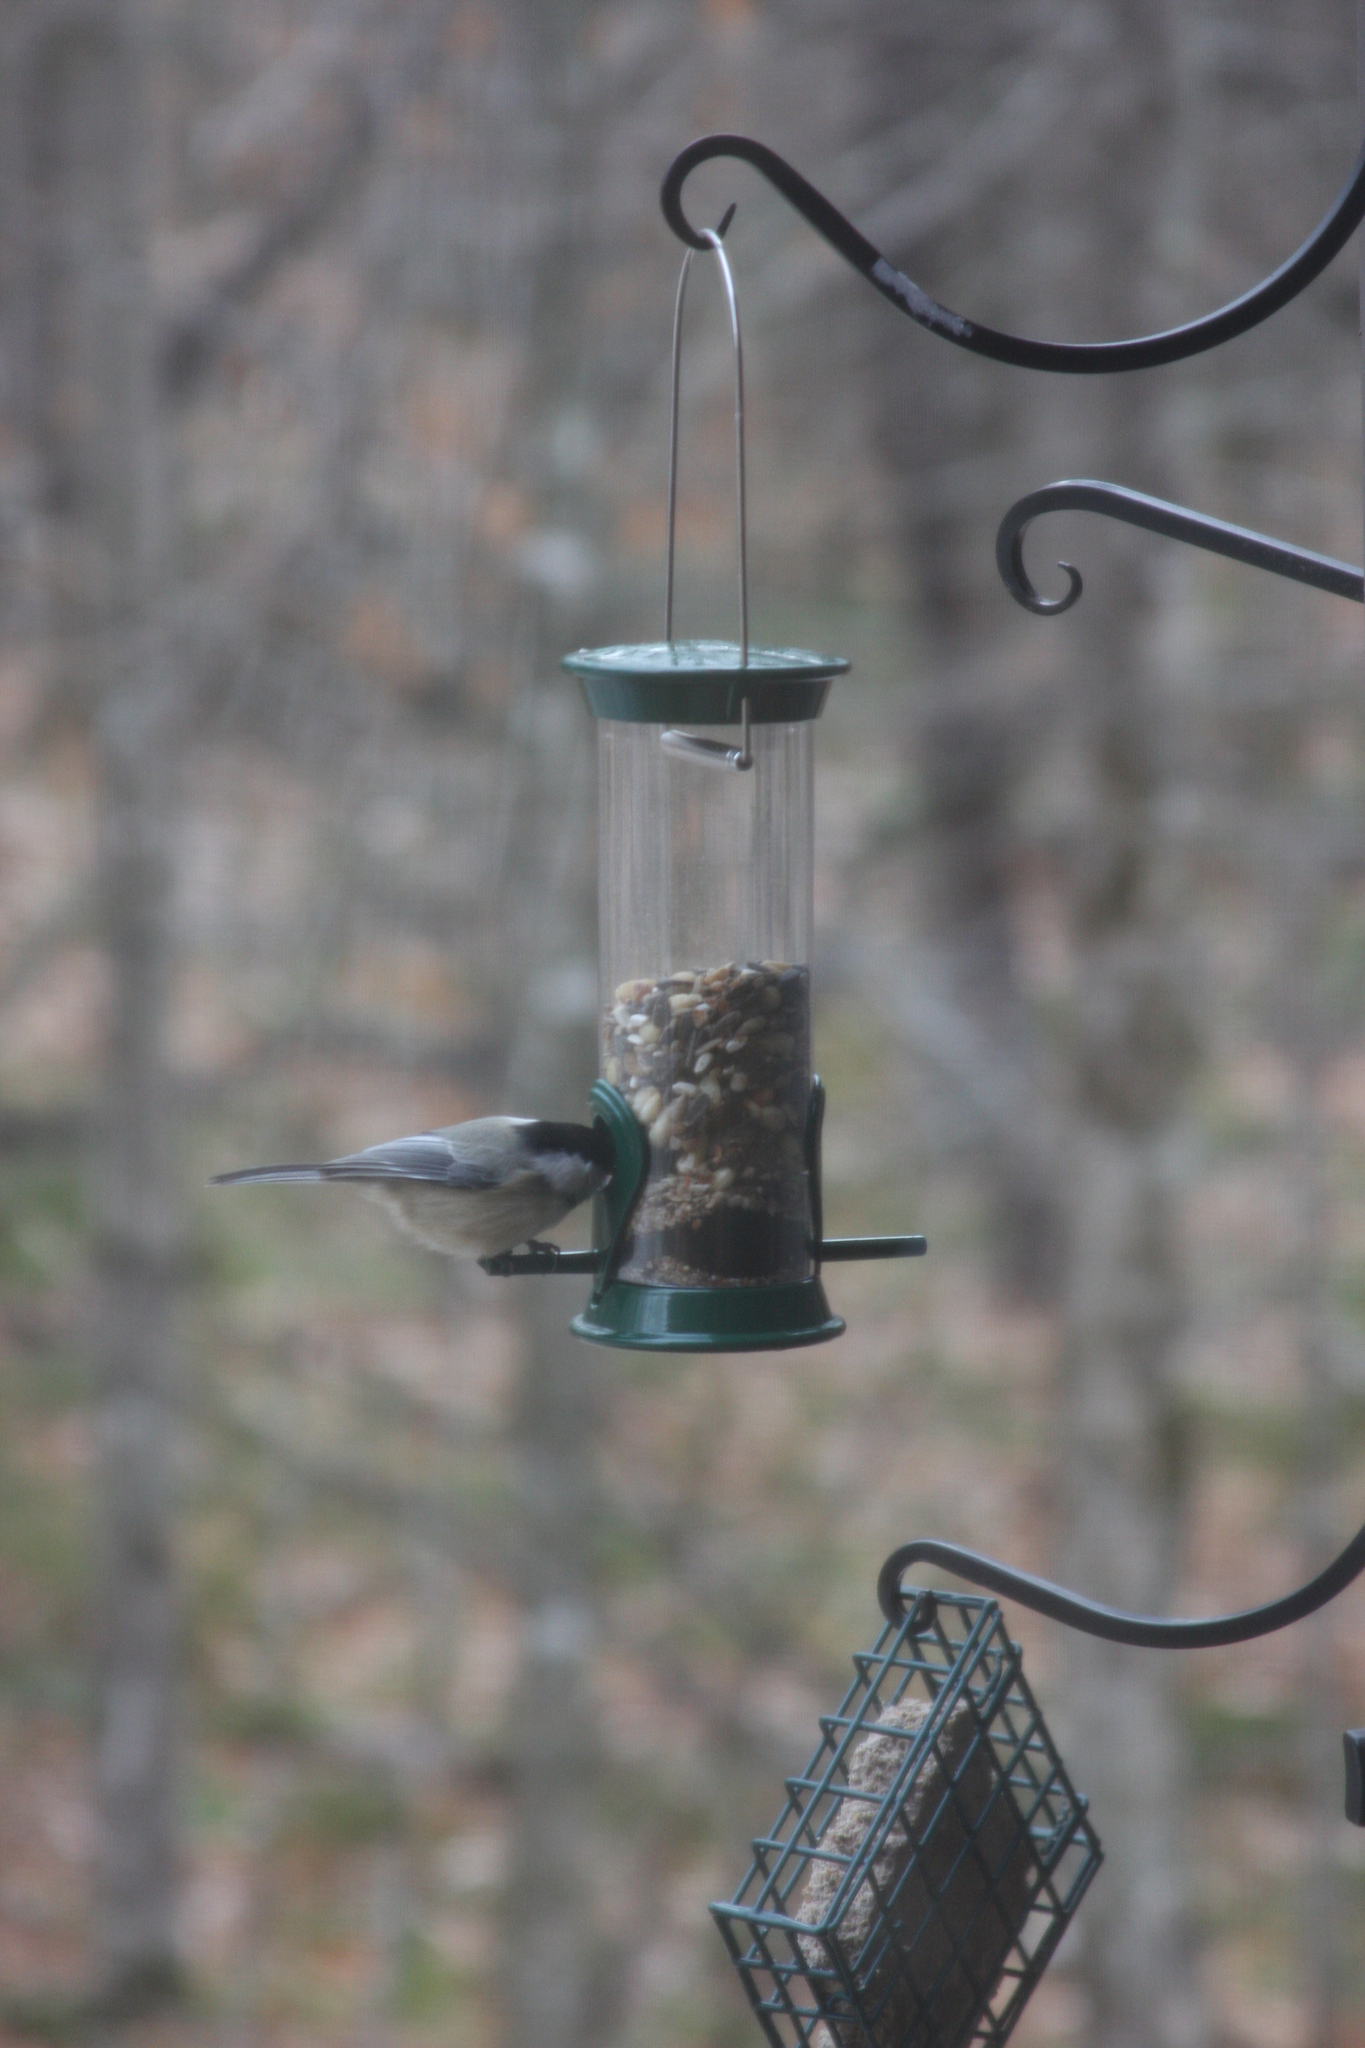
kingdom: Animalia
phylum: Chordata
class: Aves
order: Passeriformes
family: Paridae
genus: Poecile
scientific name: Poecile atricapillus
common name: Black-capped chickadee
